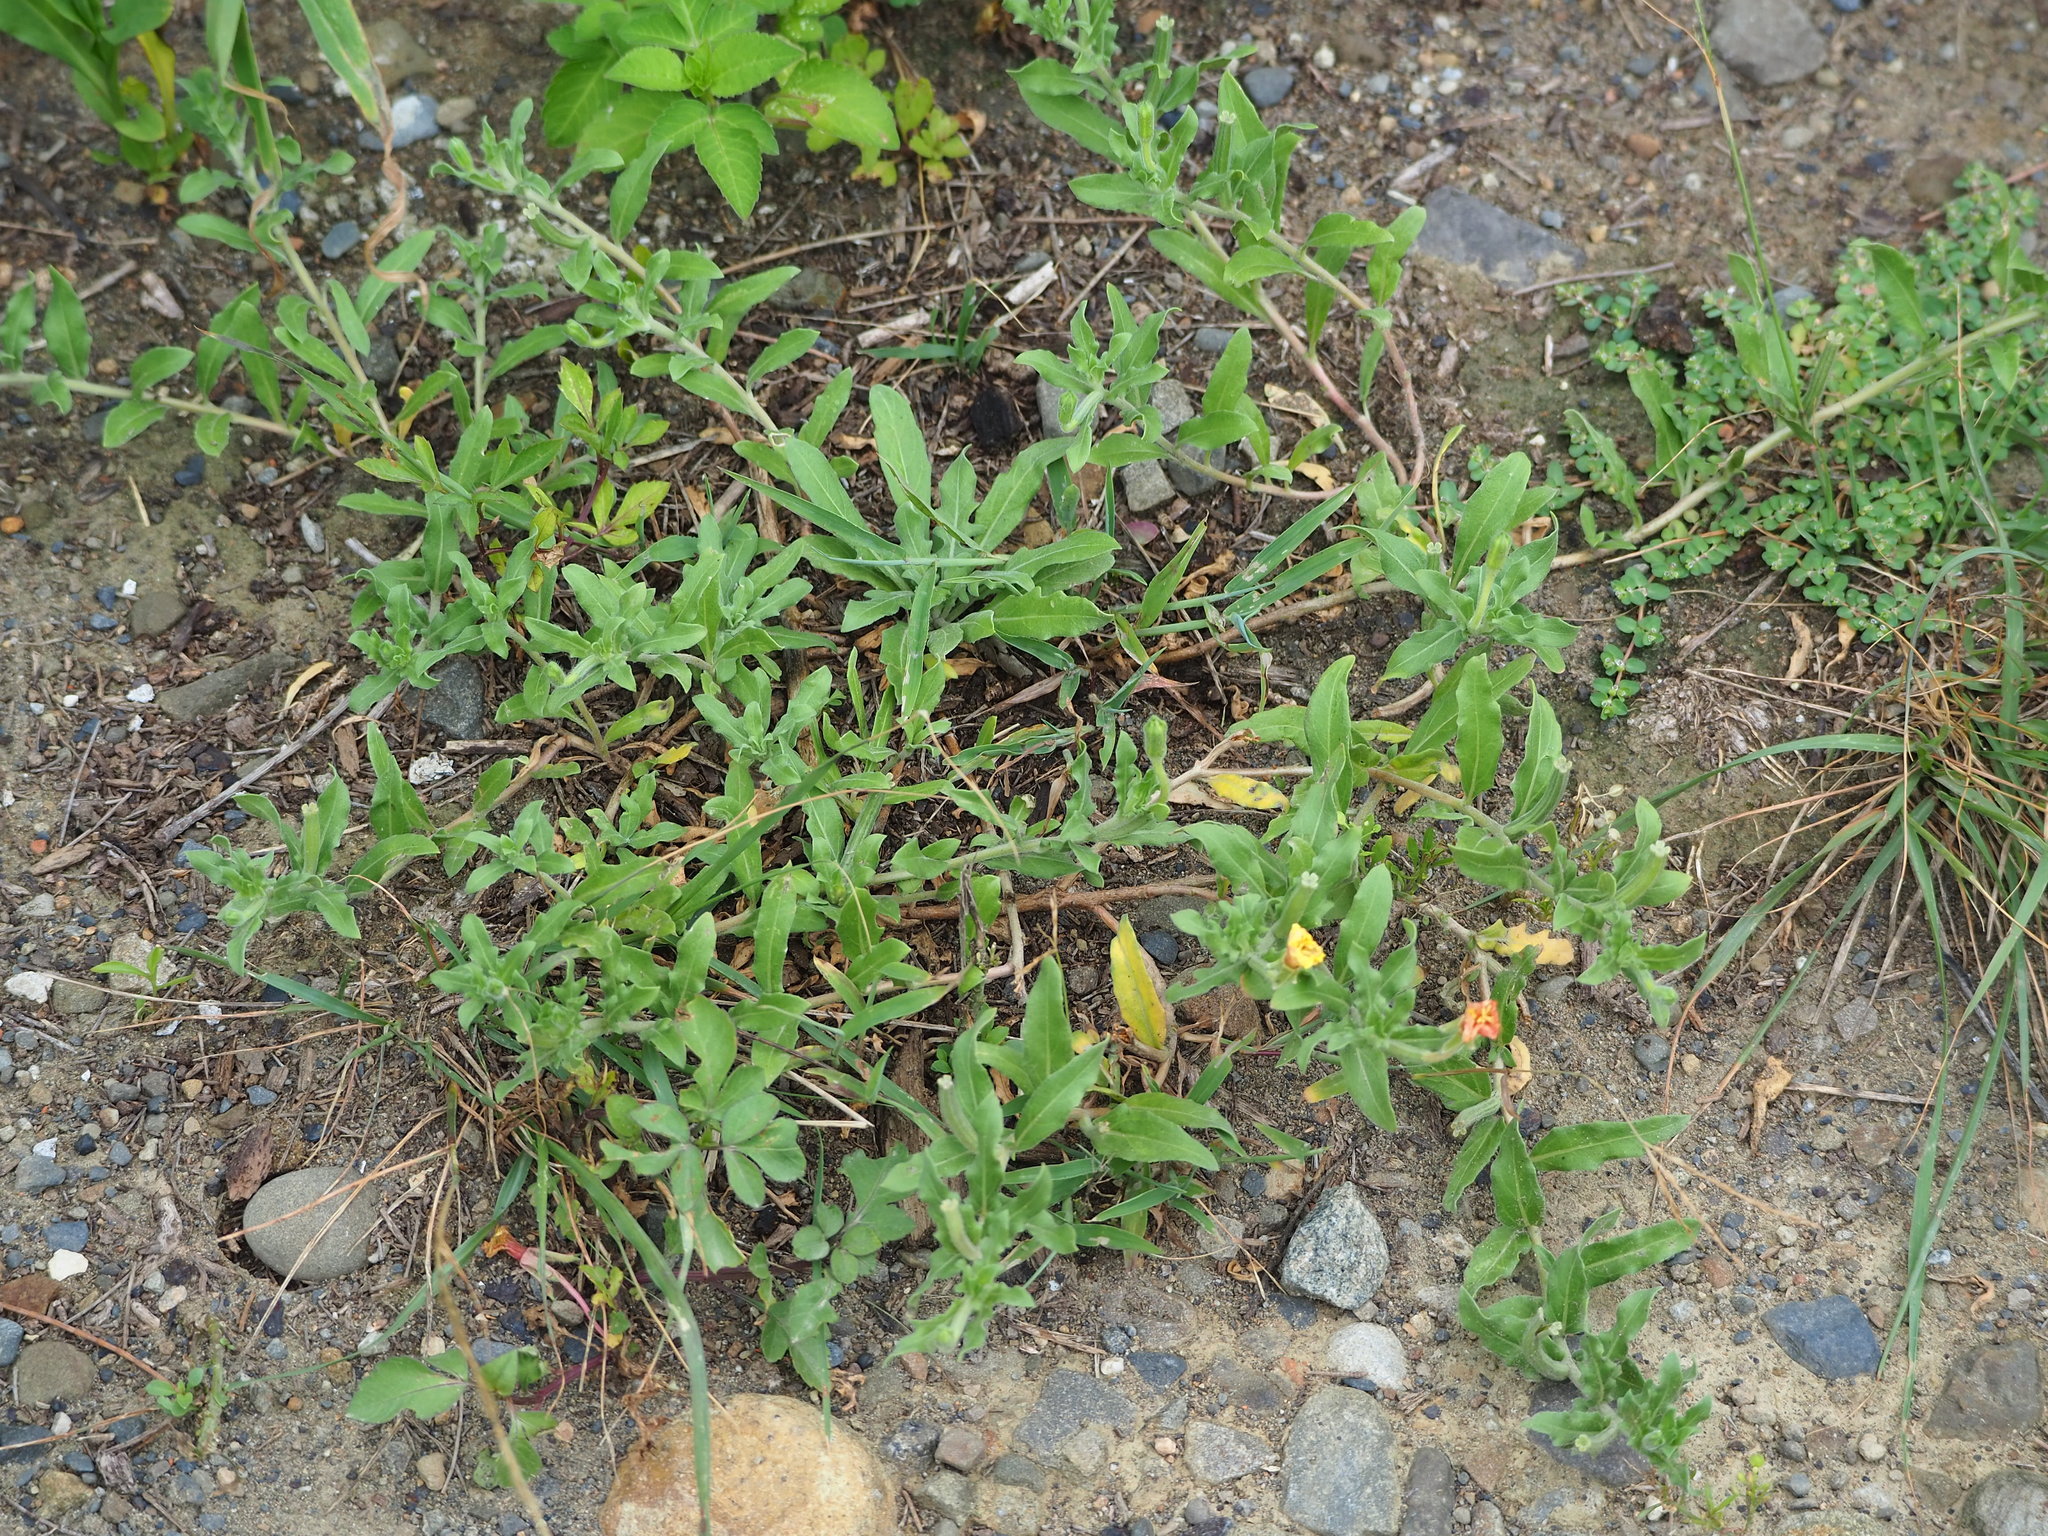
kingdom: Plantae
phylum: Tracheophyta
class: Magnoliopsida
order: Myrtales
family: Onagraceae
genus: Oenothera
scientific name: Oenothera laciniata
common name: Cut-leaved evening-primrose
